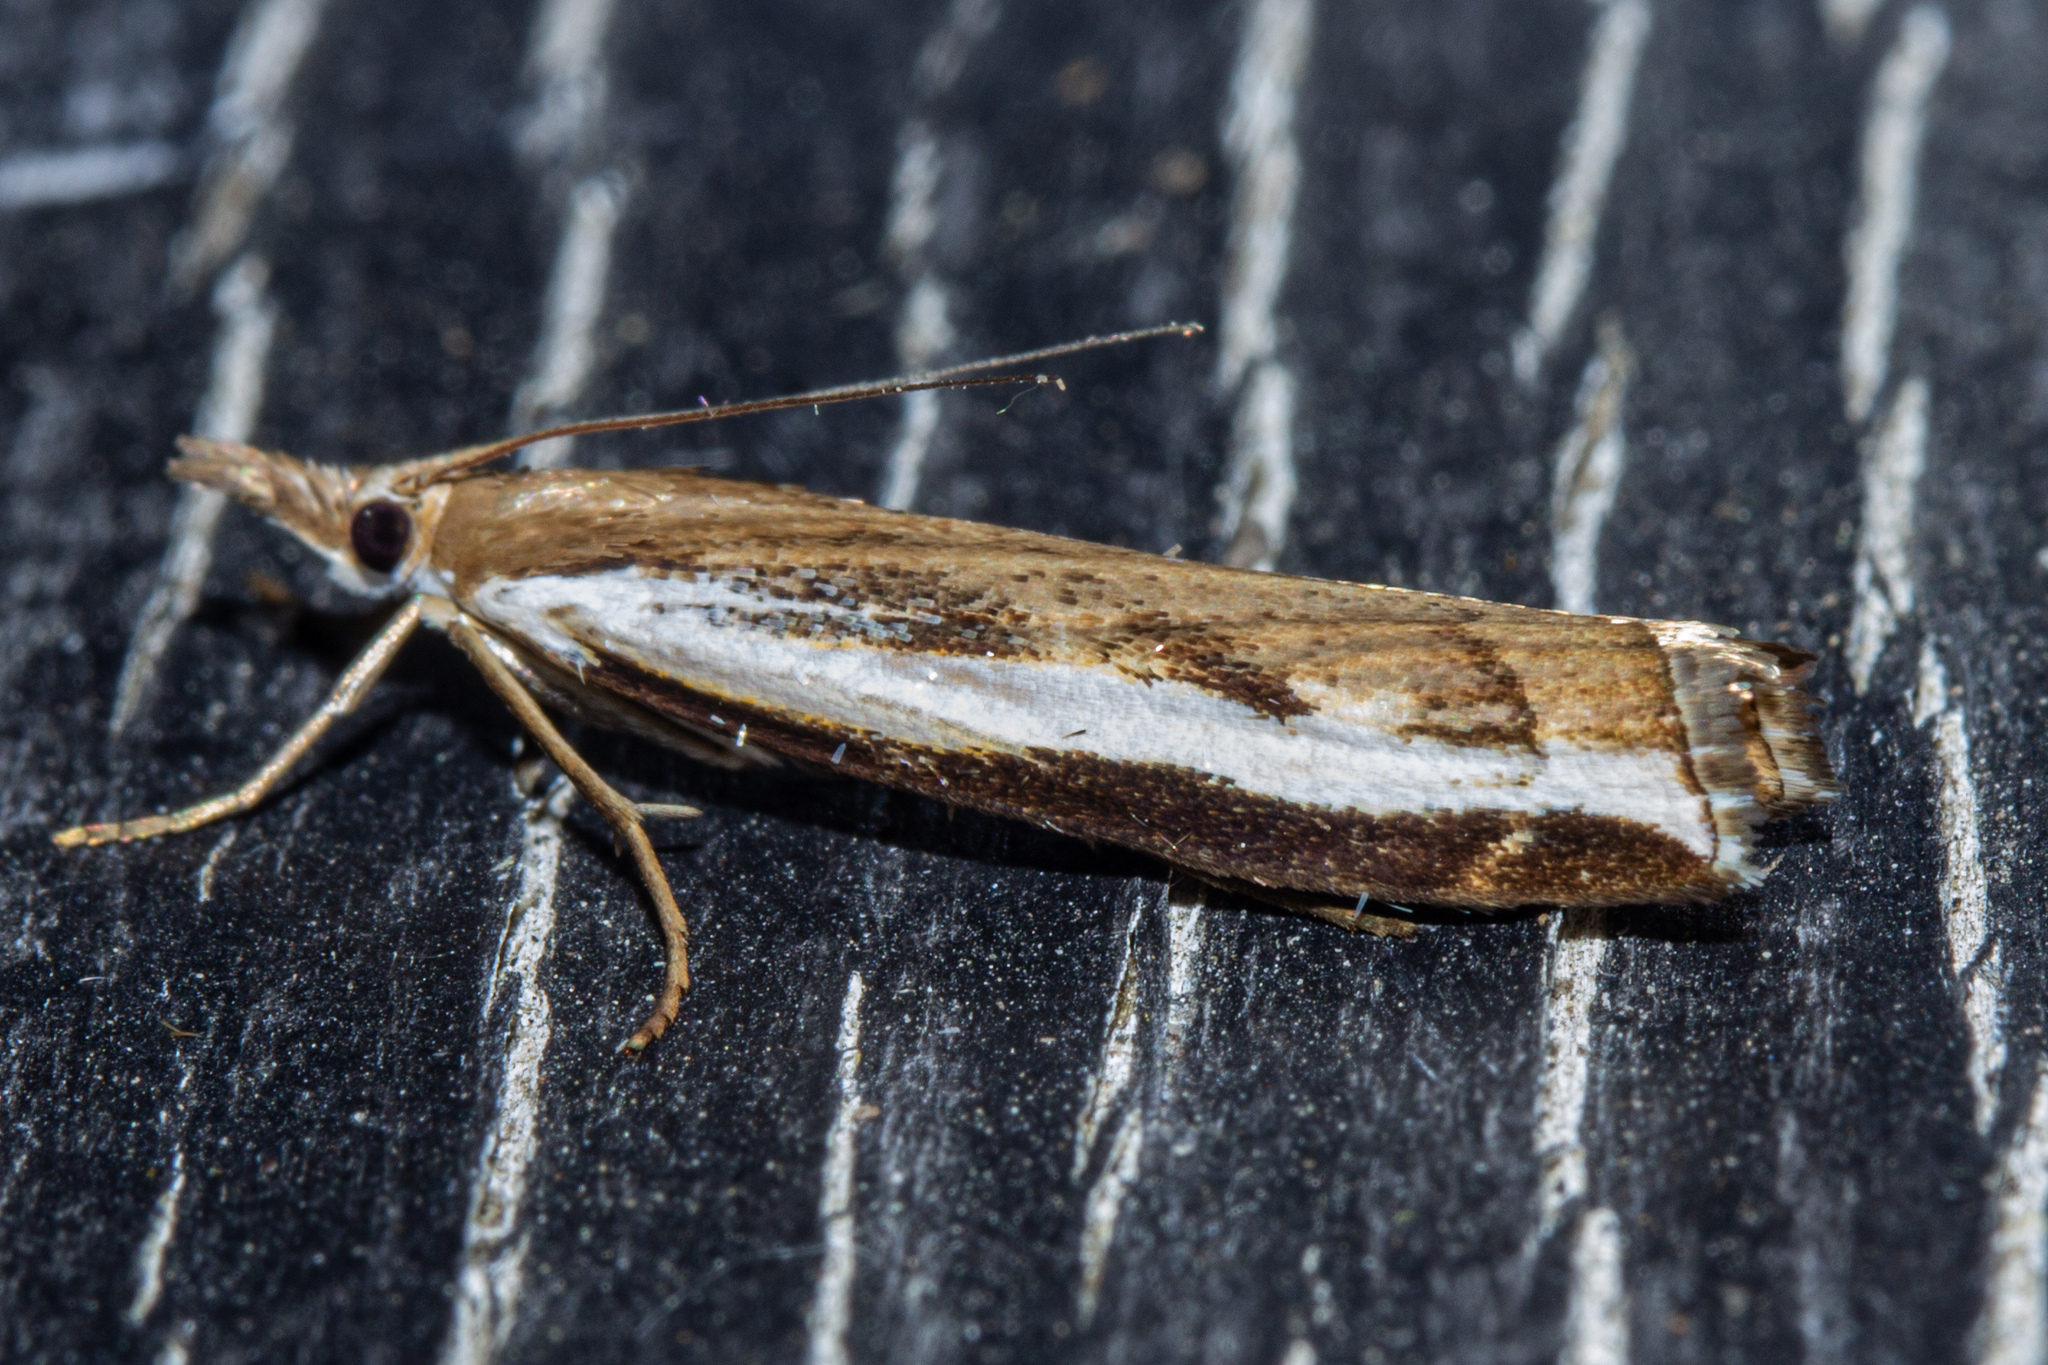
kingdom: Animalia
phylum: Arthropoda
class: Insecta
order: Lepidoptera
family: Crambidae
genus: Orocrambus
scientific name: Orocrambus flexuosellus
